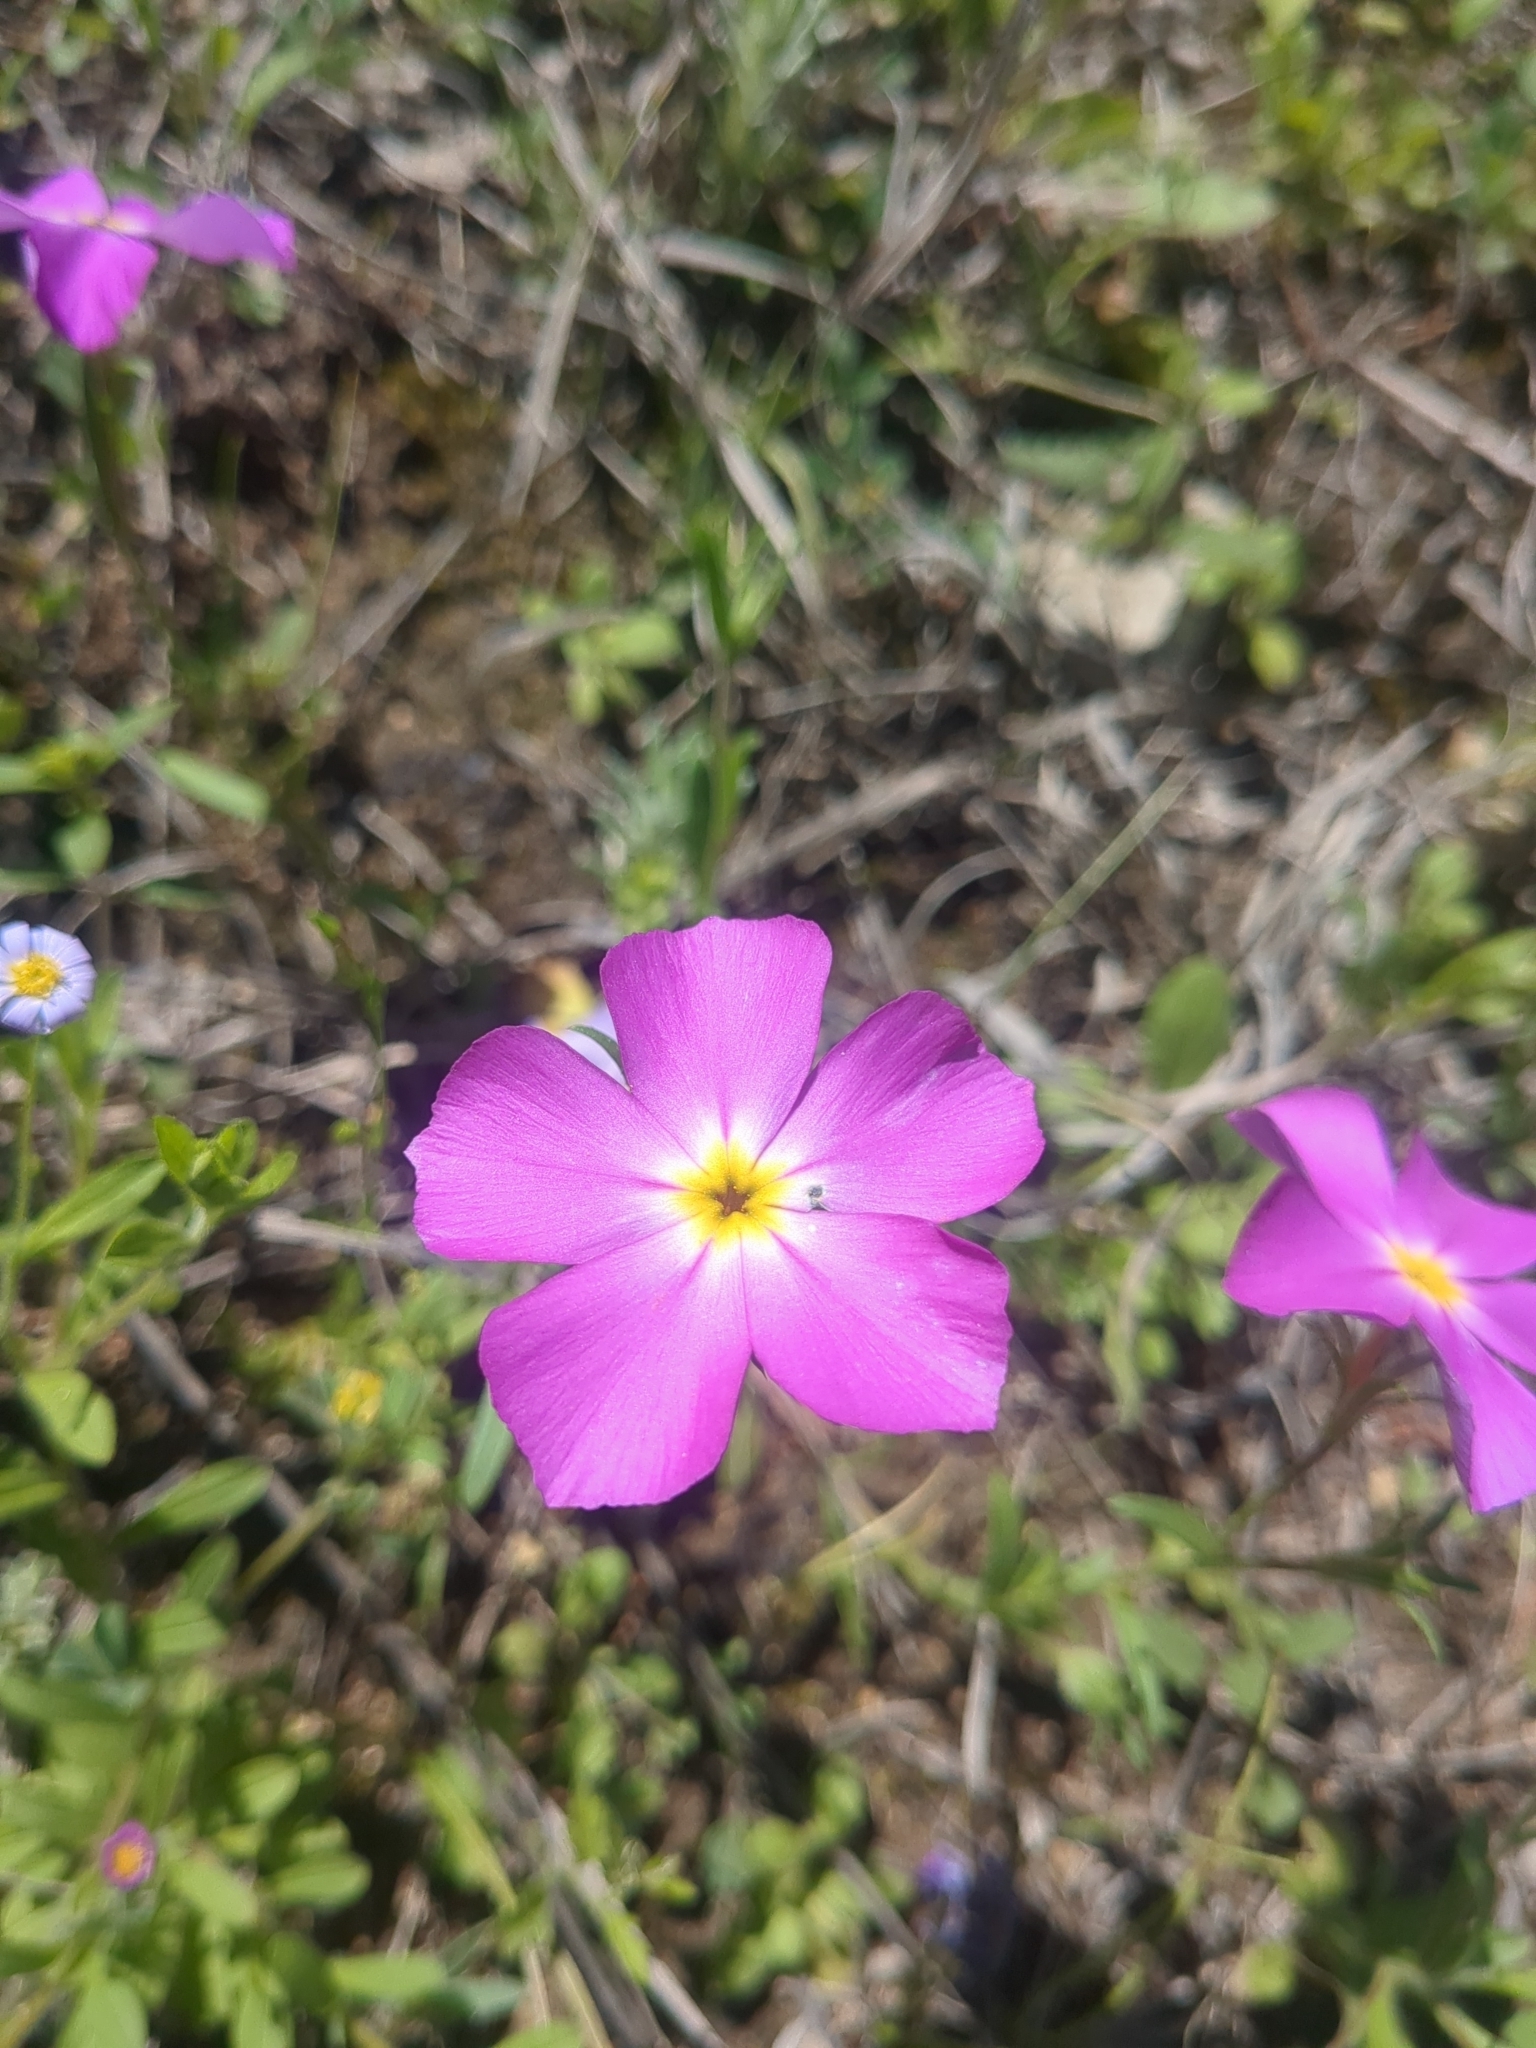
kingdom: Plantae
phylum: Tracheophyta
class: Magnoliopsida
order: Ericales
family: Polemoniaceae
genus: Phlox
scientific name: Phlox roemeriana
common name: Roemer's phlox
